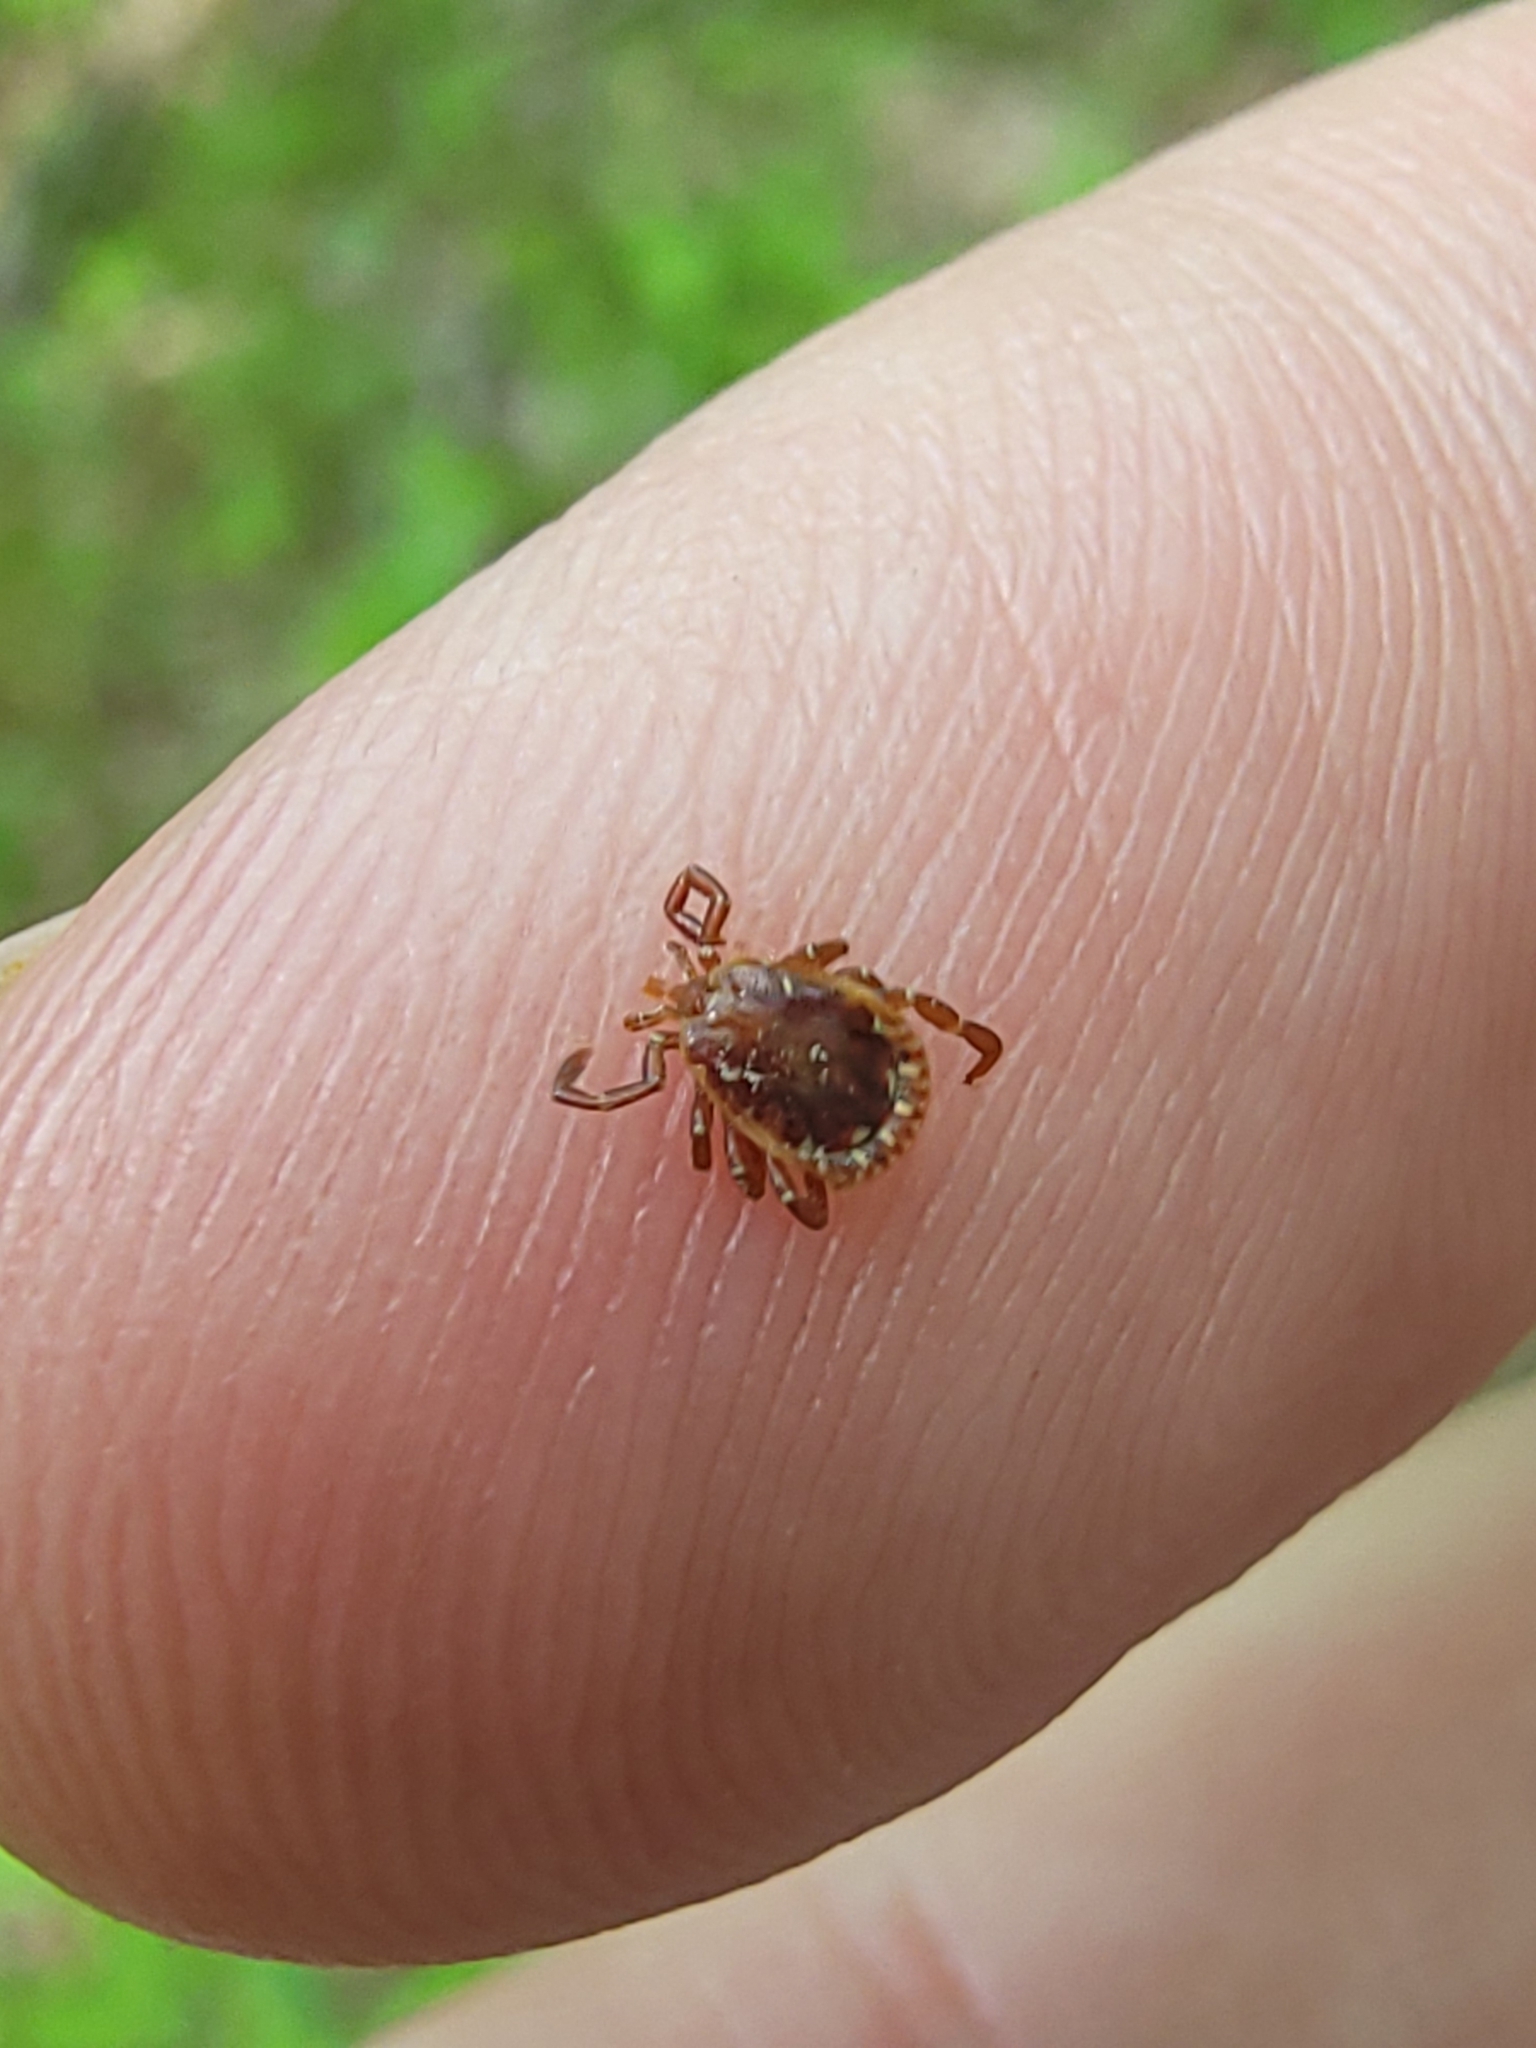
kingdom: Animalia
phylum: Arthropoda
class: Arachnida
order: Ixodida
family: Ixodidae
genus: Amblyomma
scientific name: Amblyomma americanum
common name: Lone star tick
